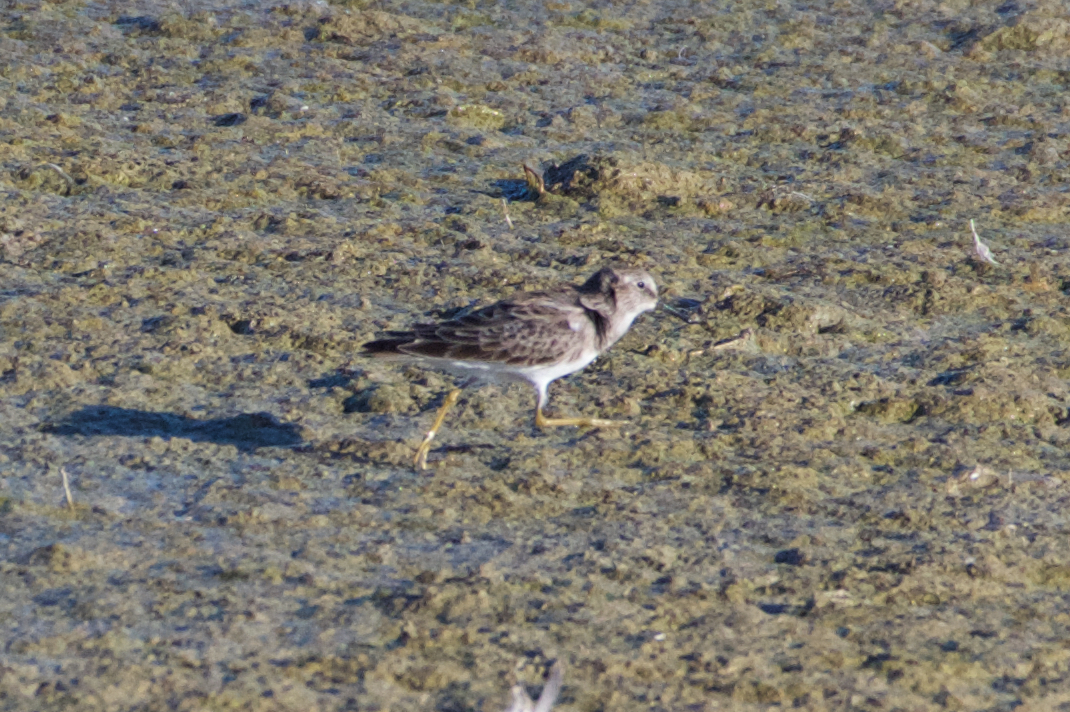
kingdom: Animalia
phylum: Chordata
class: Aves
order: Charadriiformes
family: Scolopacidae
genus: Calidris
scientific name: Calidris minutilla
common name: Least sandpiper
